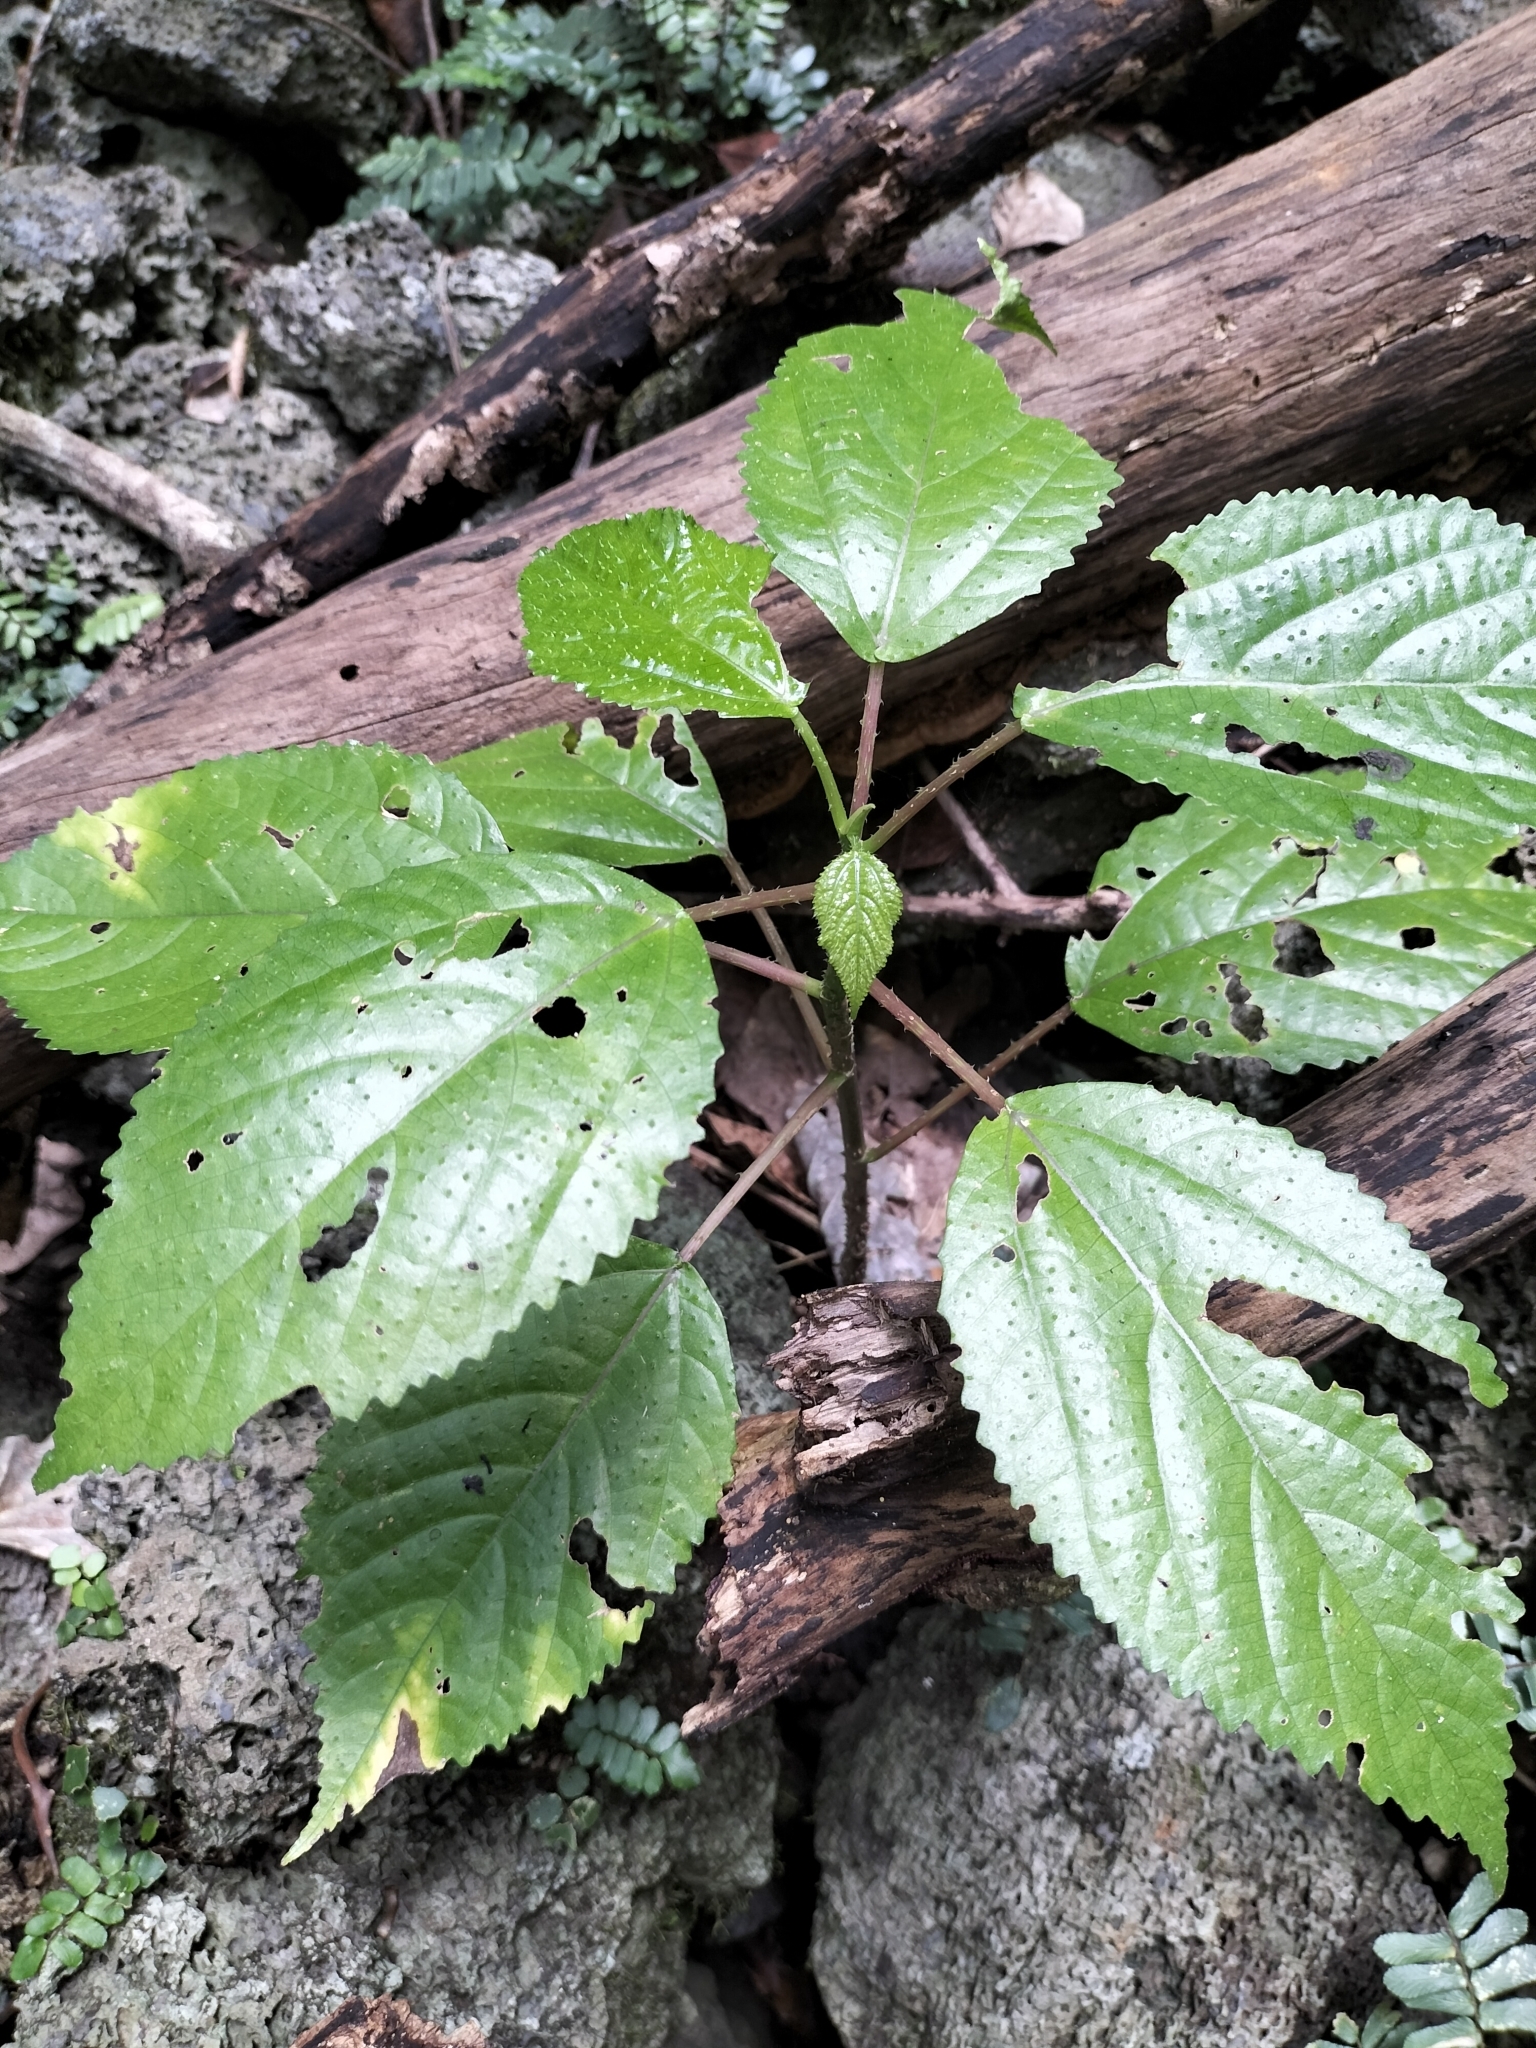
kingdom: Plantae
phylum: Tracheophyta
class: Magnoliopsida
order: Rosales
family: Urticaceae
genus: Dendrocnide
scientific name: Dendrocnide photiniphylla
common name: Shiny-leaved stinging tree
